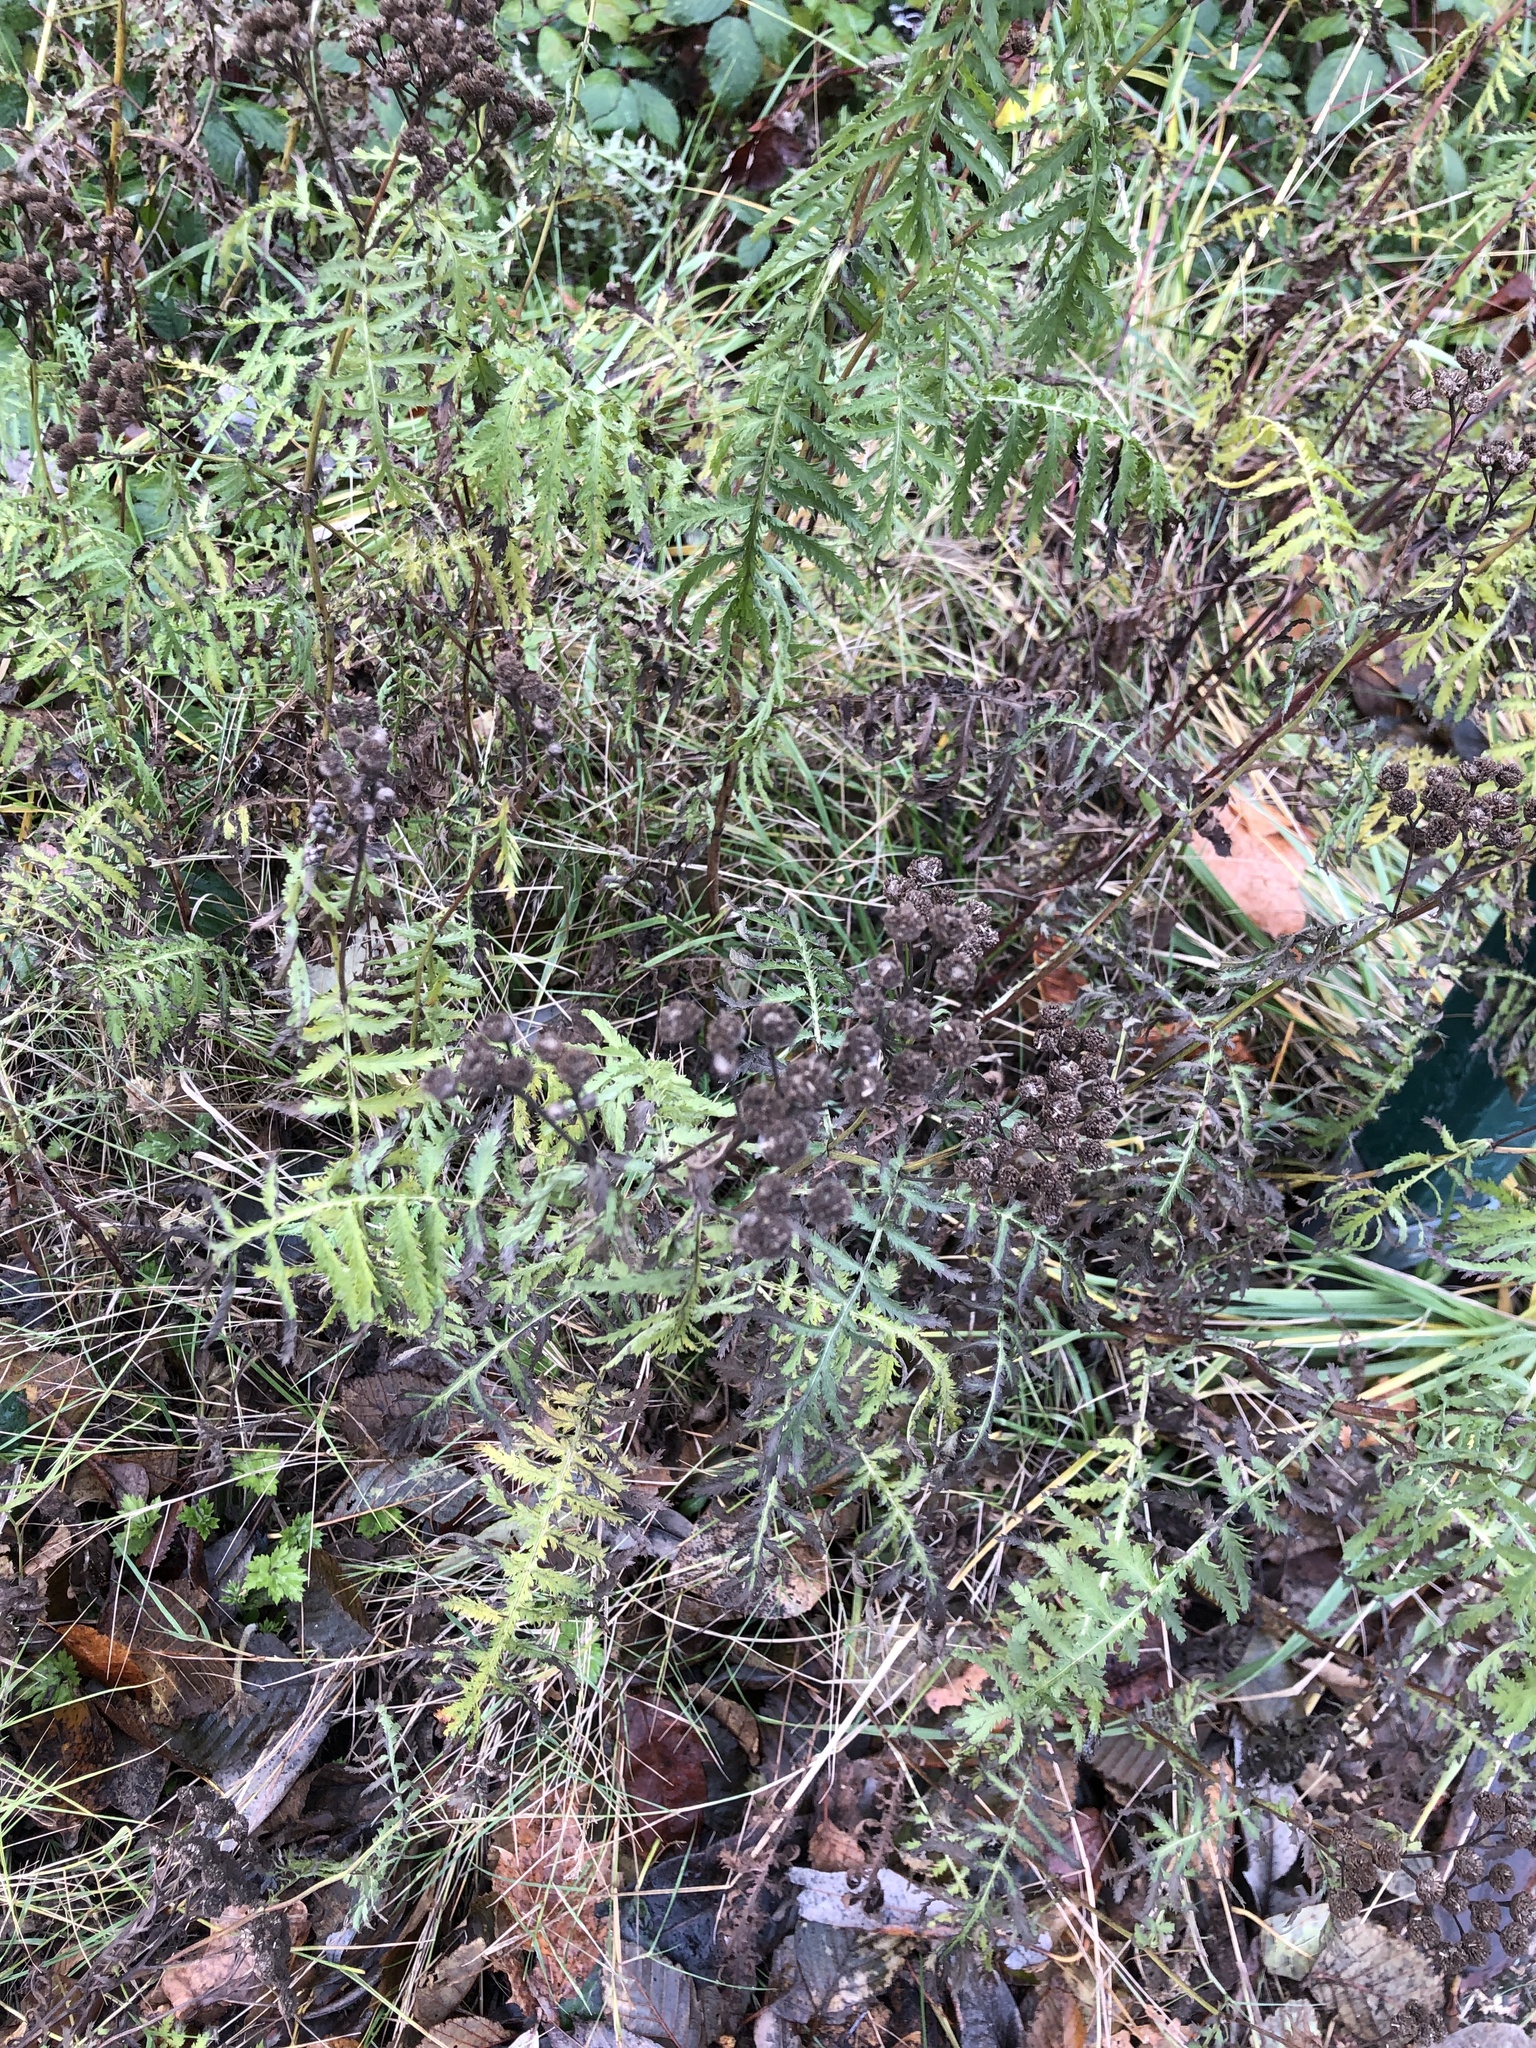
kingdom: Plantae
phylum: Tracheophyta
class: Magnoliopsida
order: Asterales
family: Asteraceae
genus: Tanacetum
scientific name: Tanacetum vulgare
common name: Common tansy
